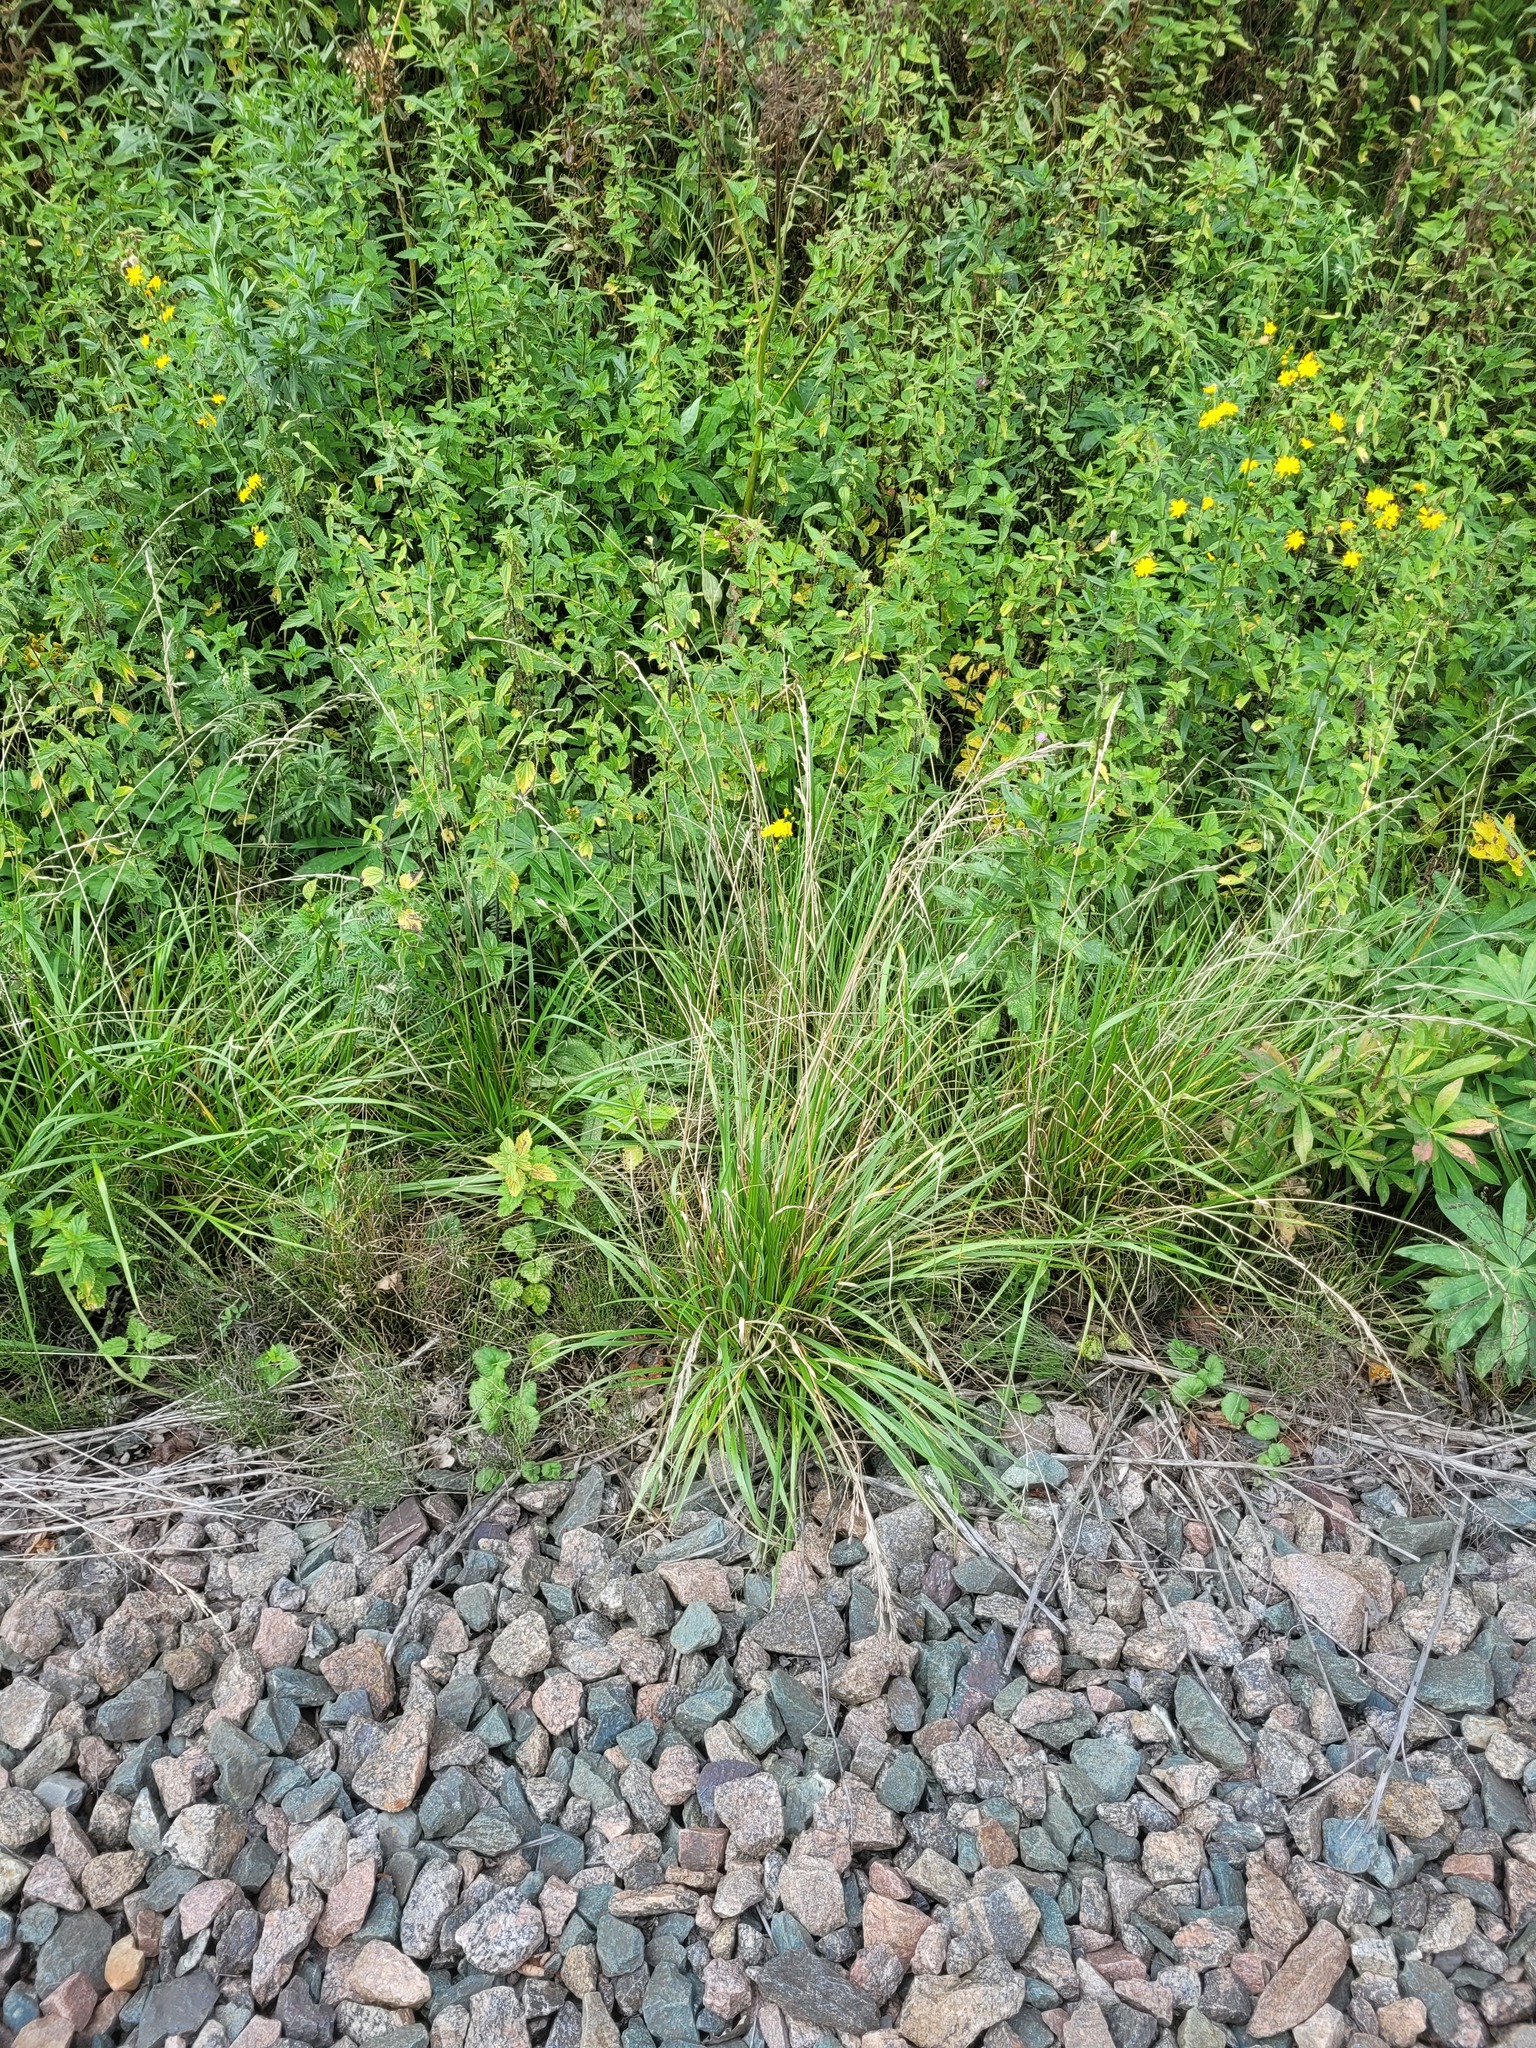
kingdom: Plantae
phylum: Tracheophyta
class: Liliopsida
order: Poales
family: Poaceae
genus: Lolium
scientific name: Lolium arundinaceum
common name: Reed fescue
